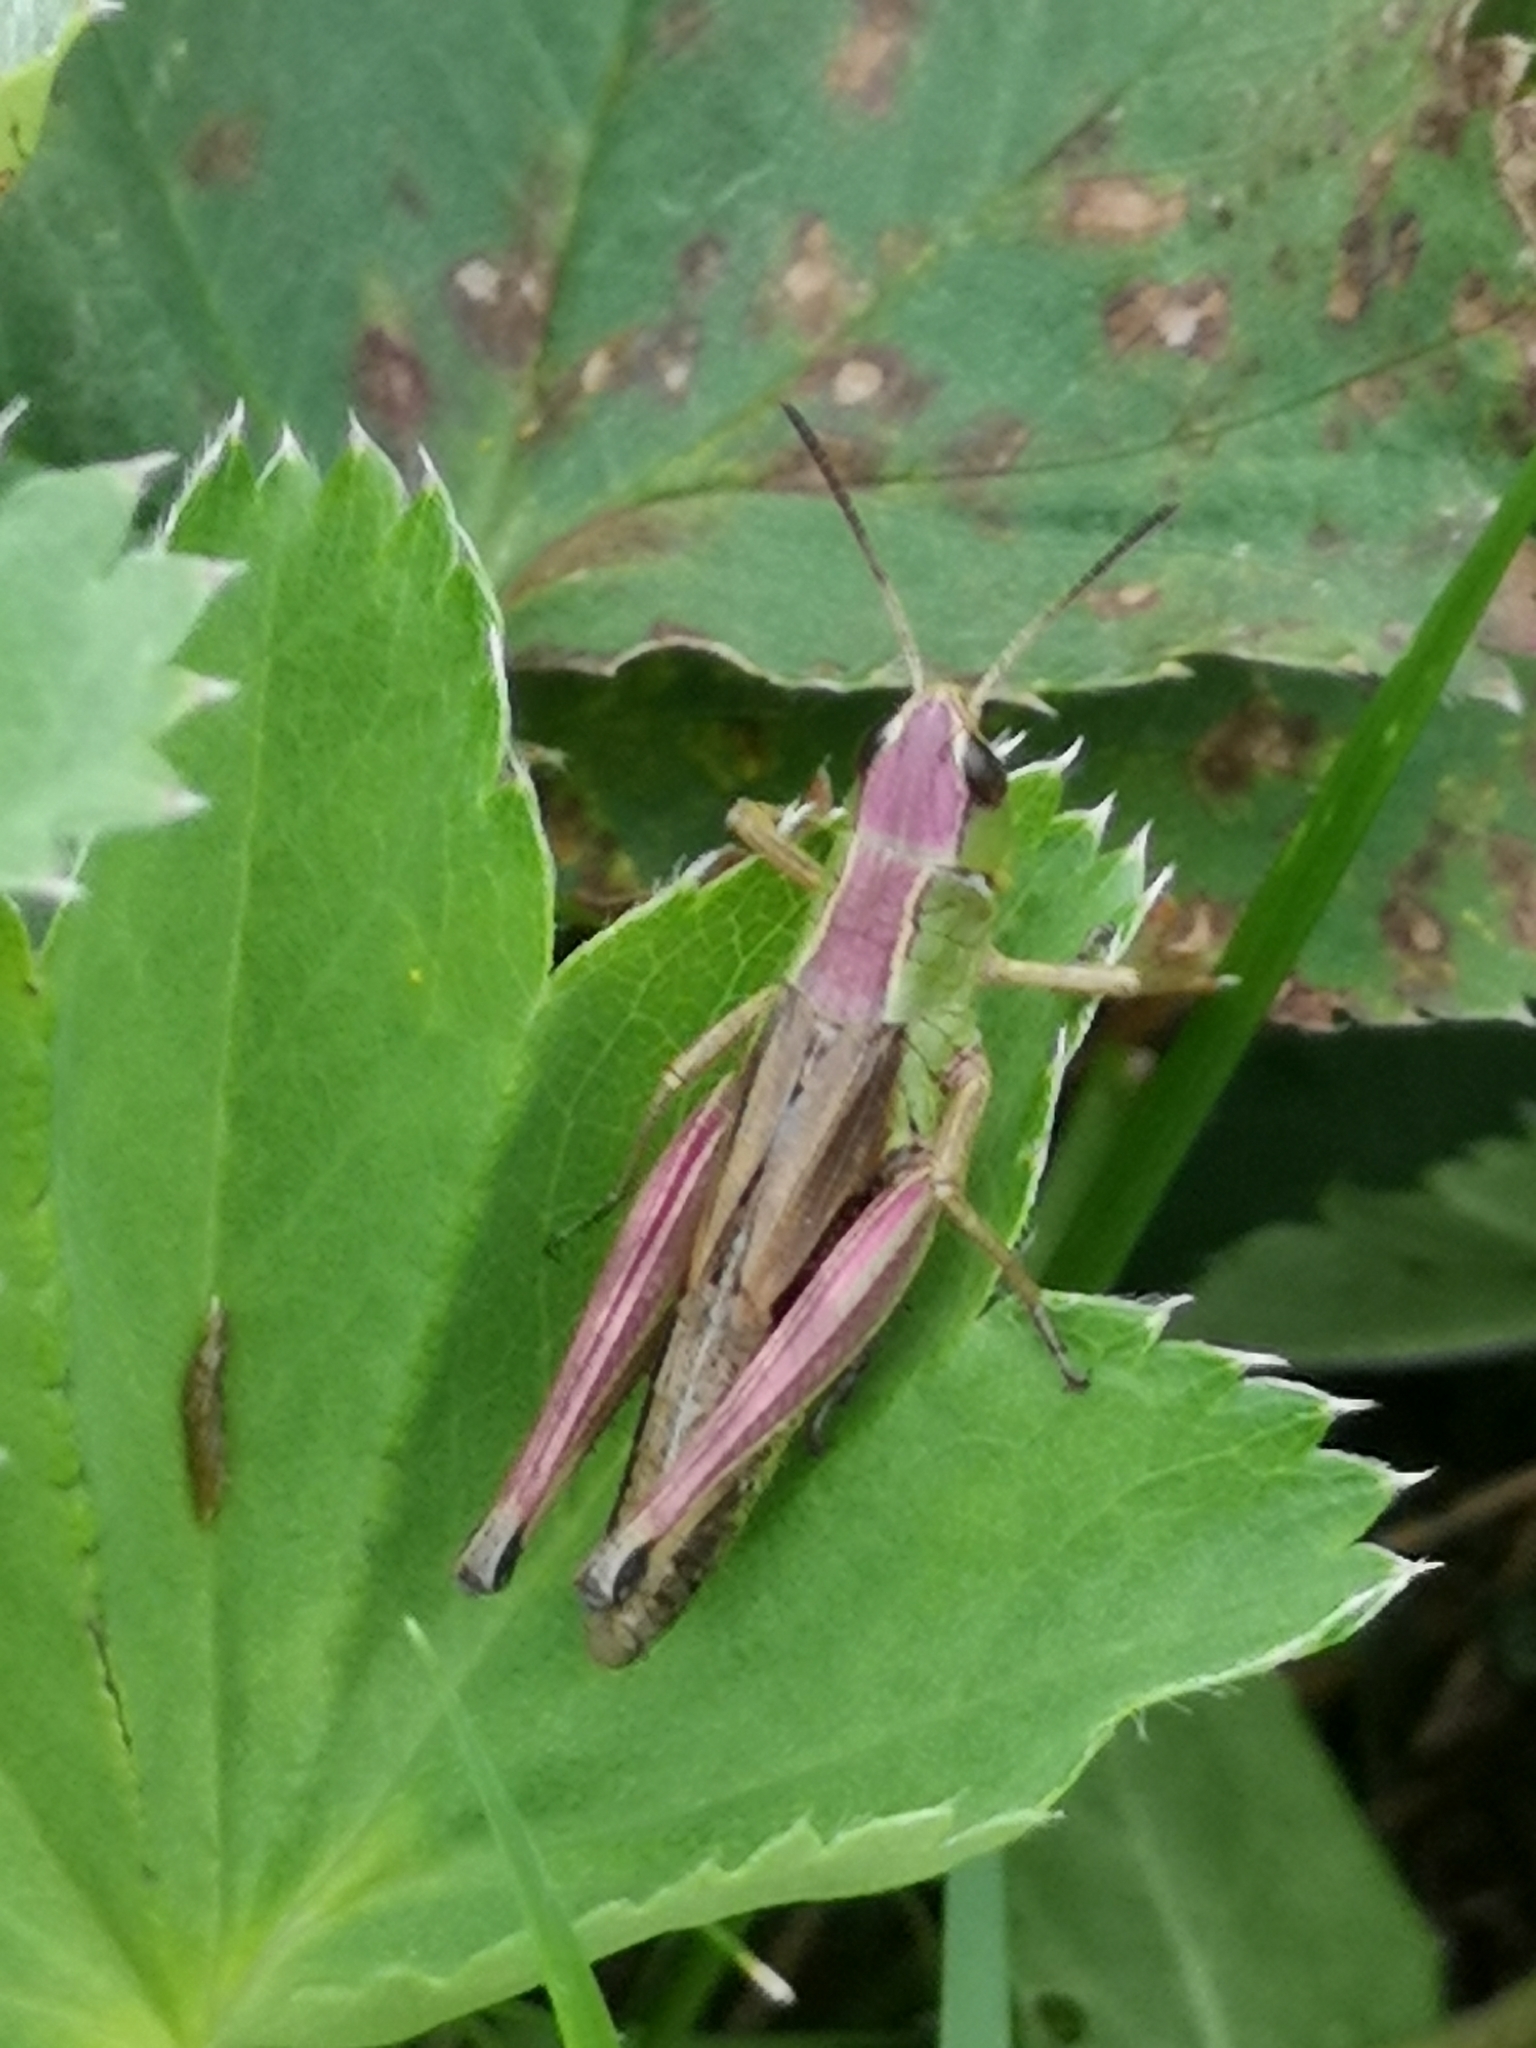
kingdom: Animalia
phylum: Arthropoda
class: Insecta
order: Orthoptera
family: Acrididae
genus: Pseudochorthippus
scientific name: Pseudochorthippus parallelus
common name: Meadow grasshopper
